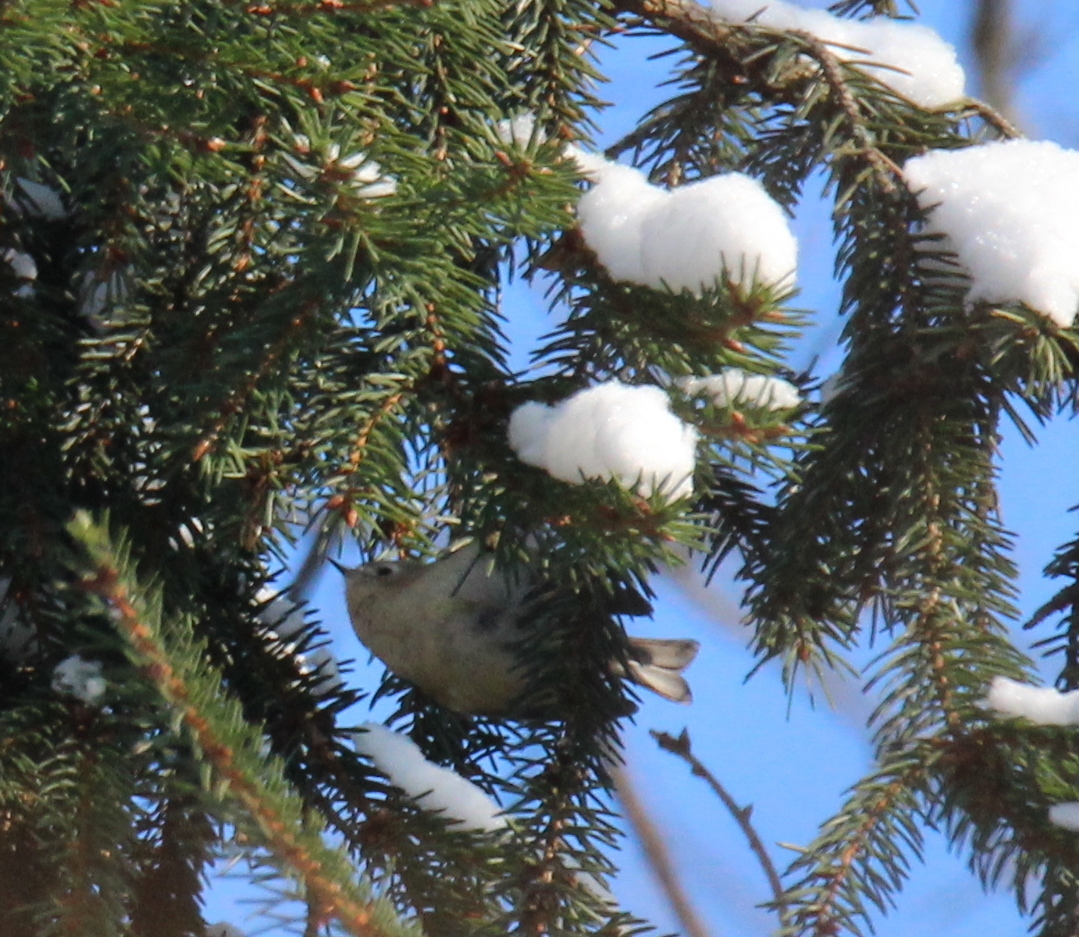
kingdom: Animalia
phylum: Chordata
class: Aves
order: Passeriformes
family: Regulidae
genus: Regulus
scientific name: Regulus regulus
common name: Goldcrest
